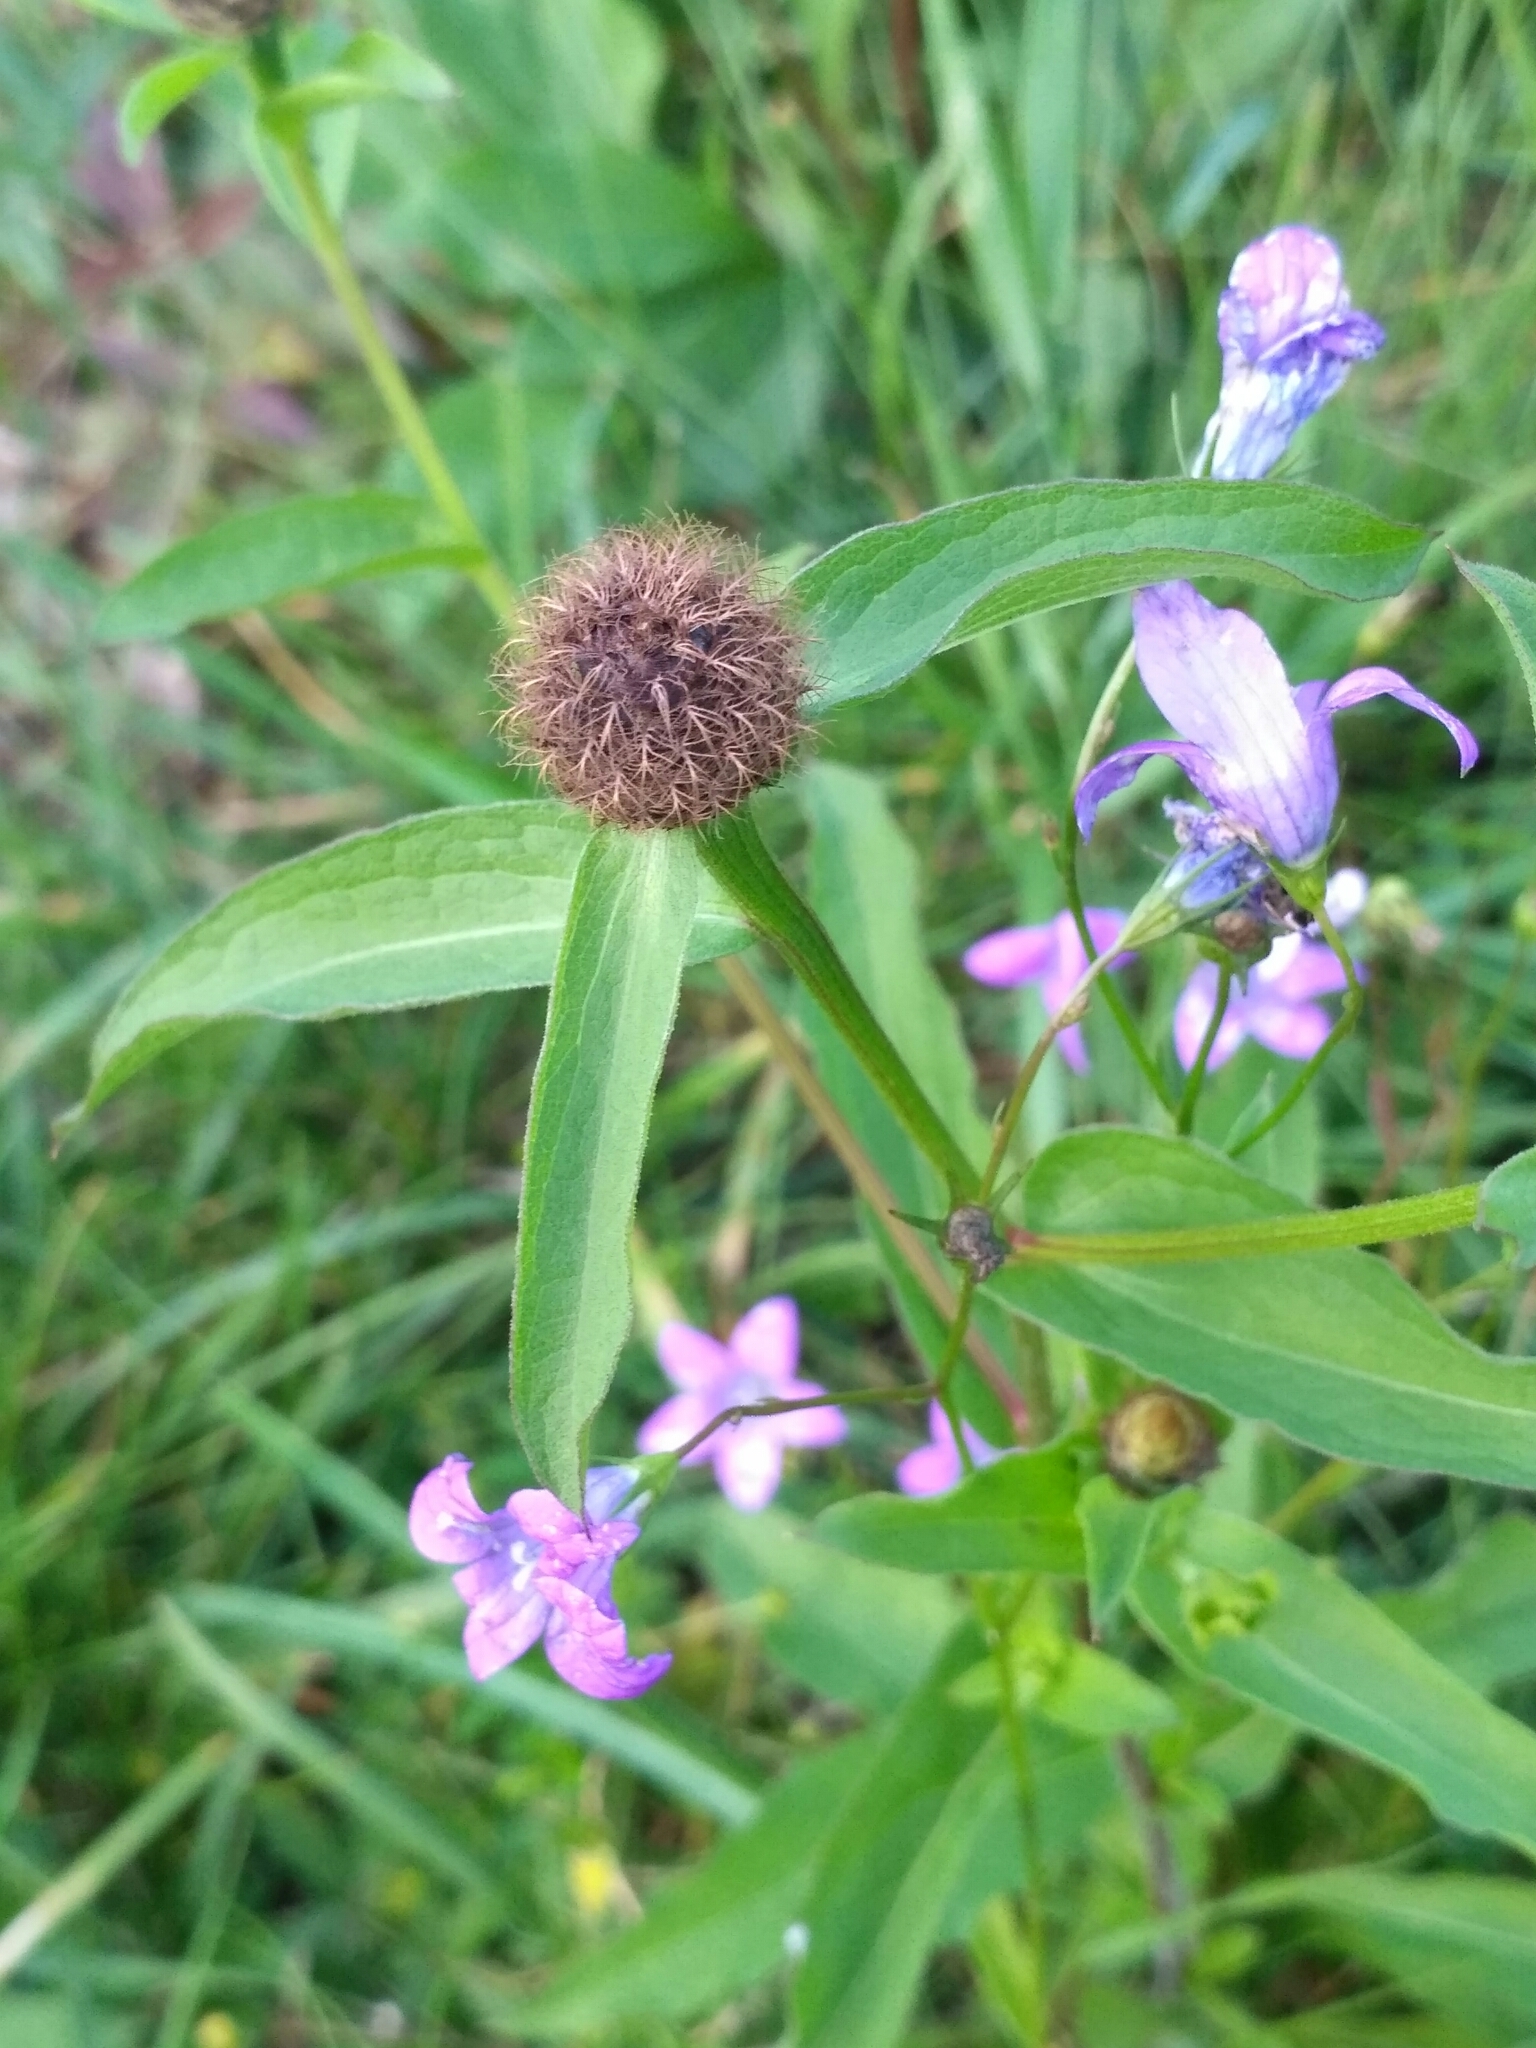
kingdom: Plantae
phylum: Tracheophyta
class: Magnoliopsida
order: Asterales
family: Asteraceae
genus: Centaurea
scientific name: Centaurea phrygia
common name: Wig knapweed
